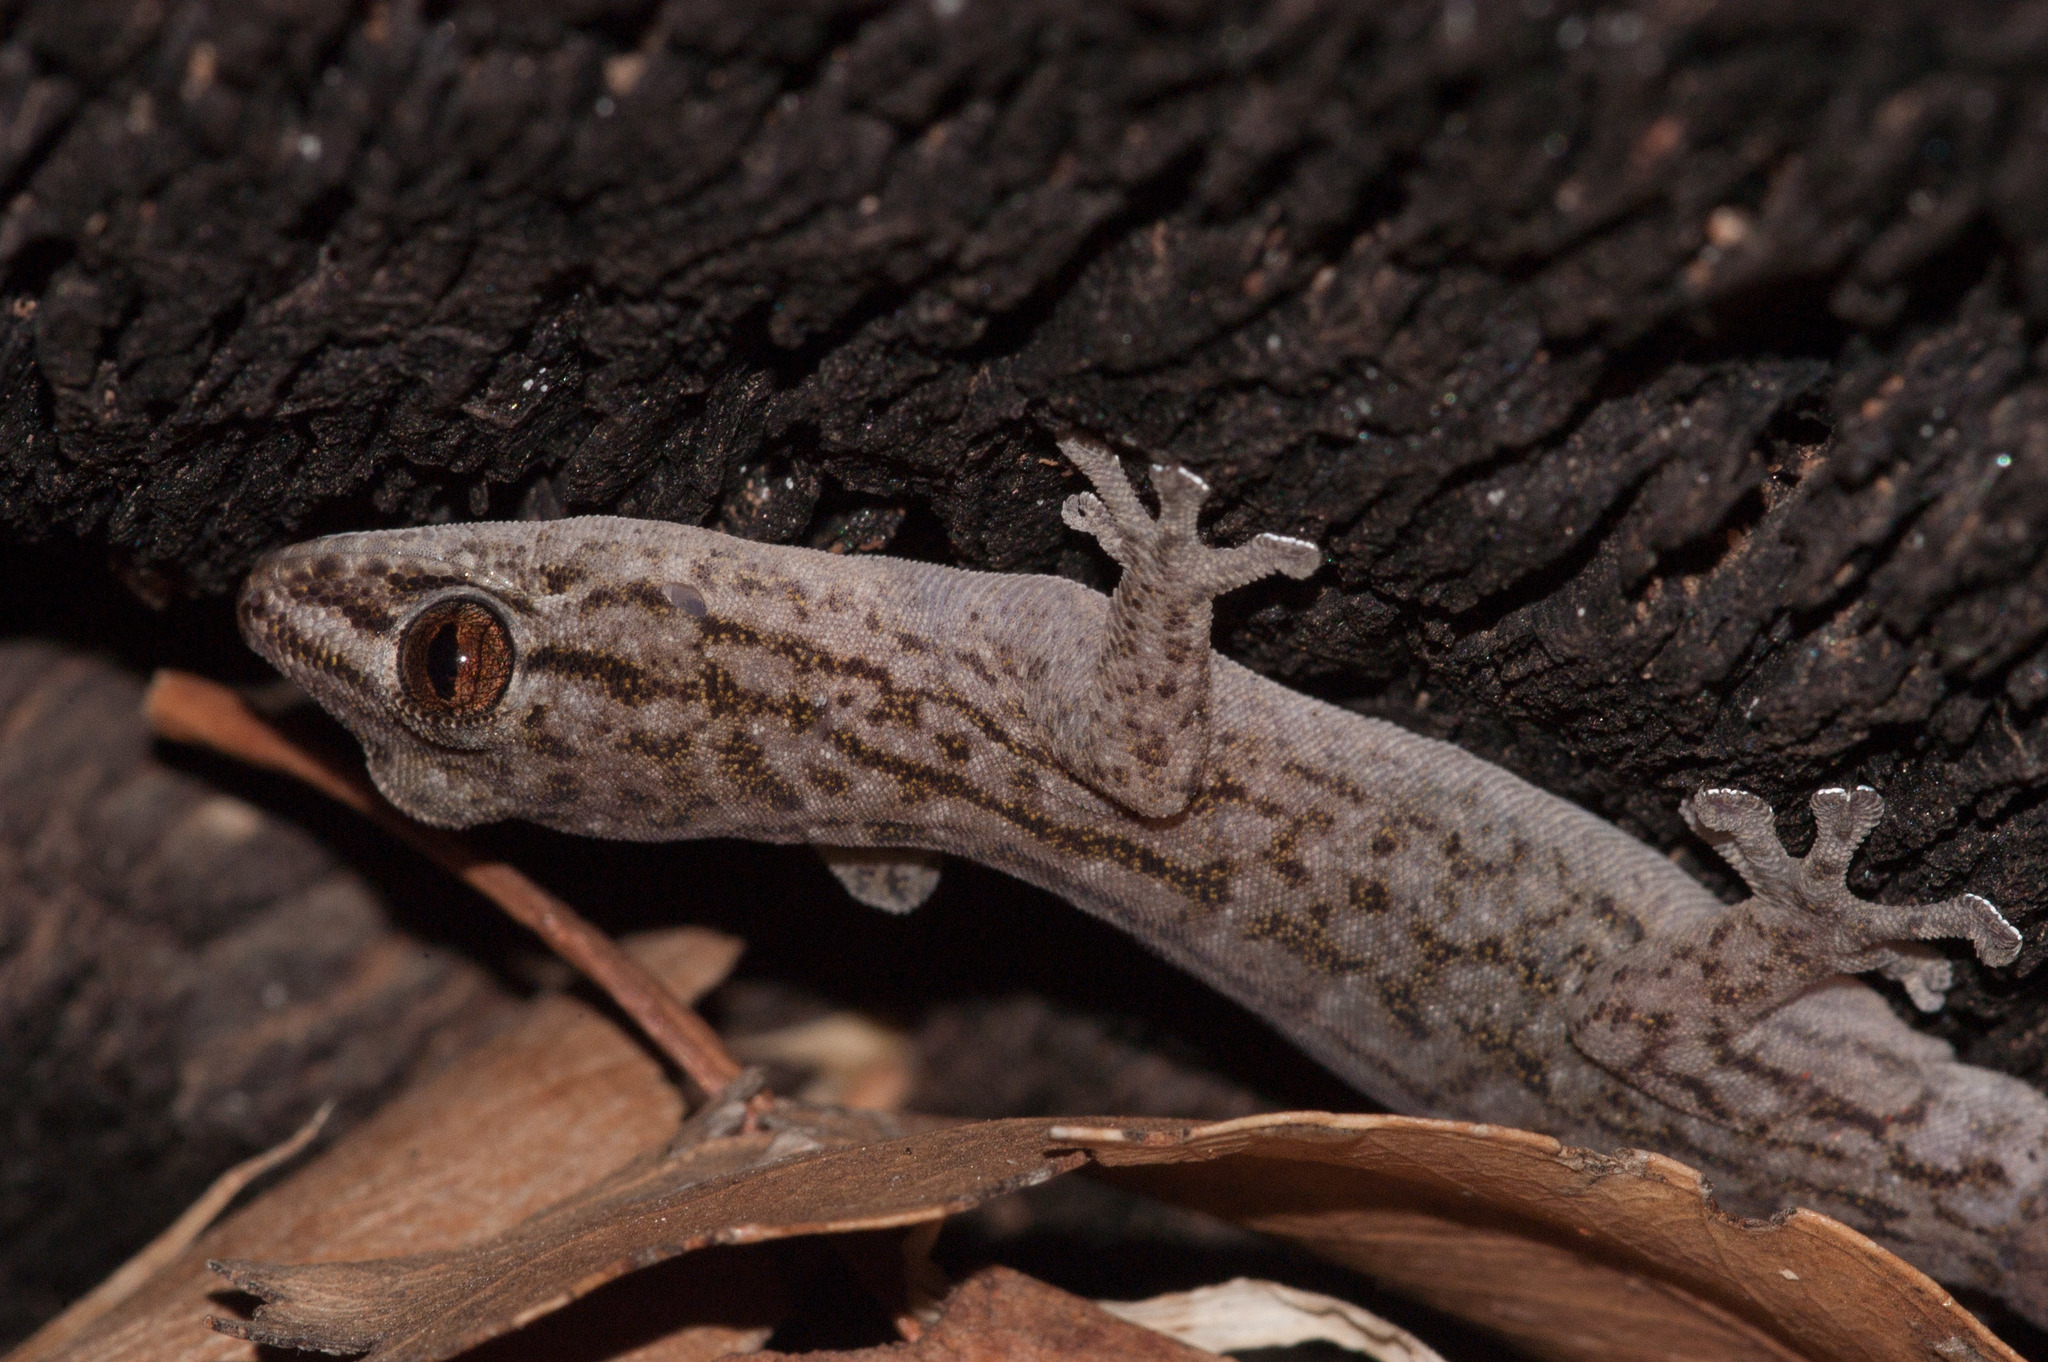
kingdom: Animalia
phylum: Chordata
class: Squamata
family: Gekkonidae
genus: Gehyra
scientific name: Gehyra versicolor
